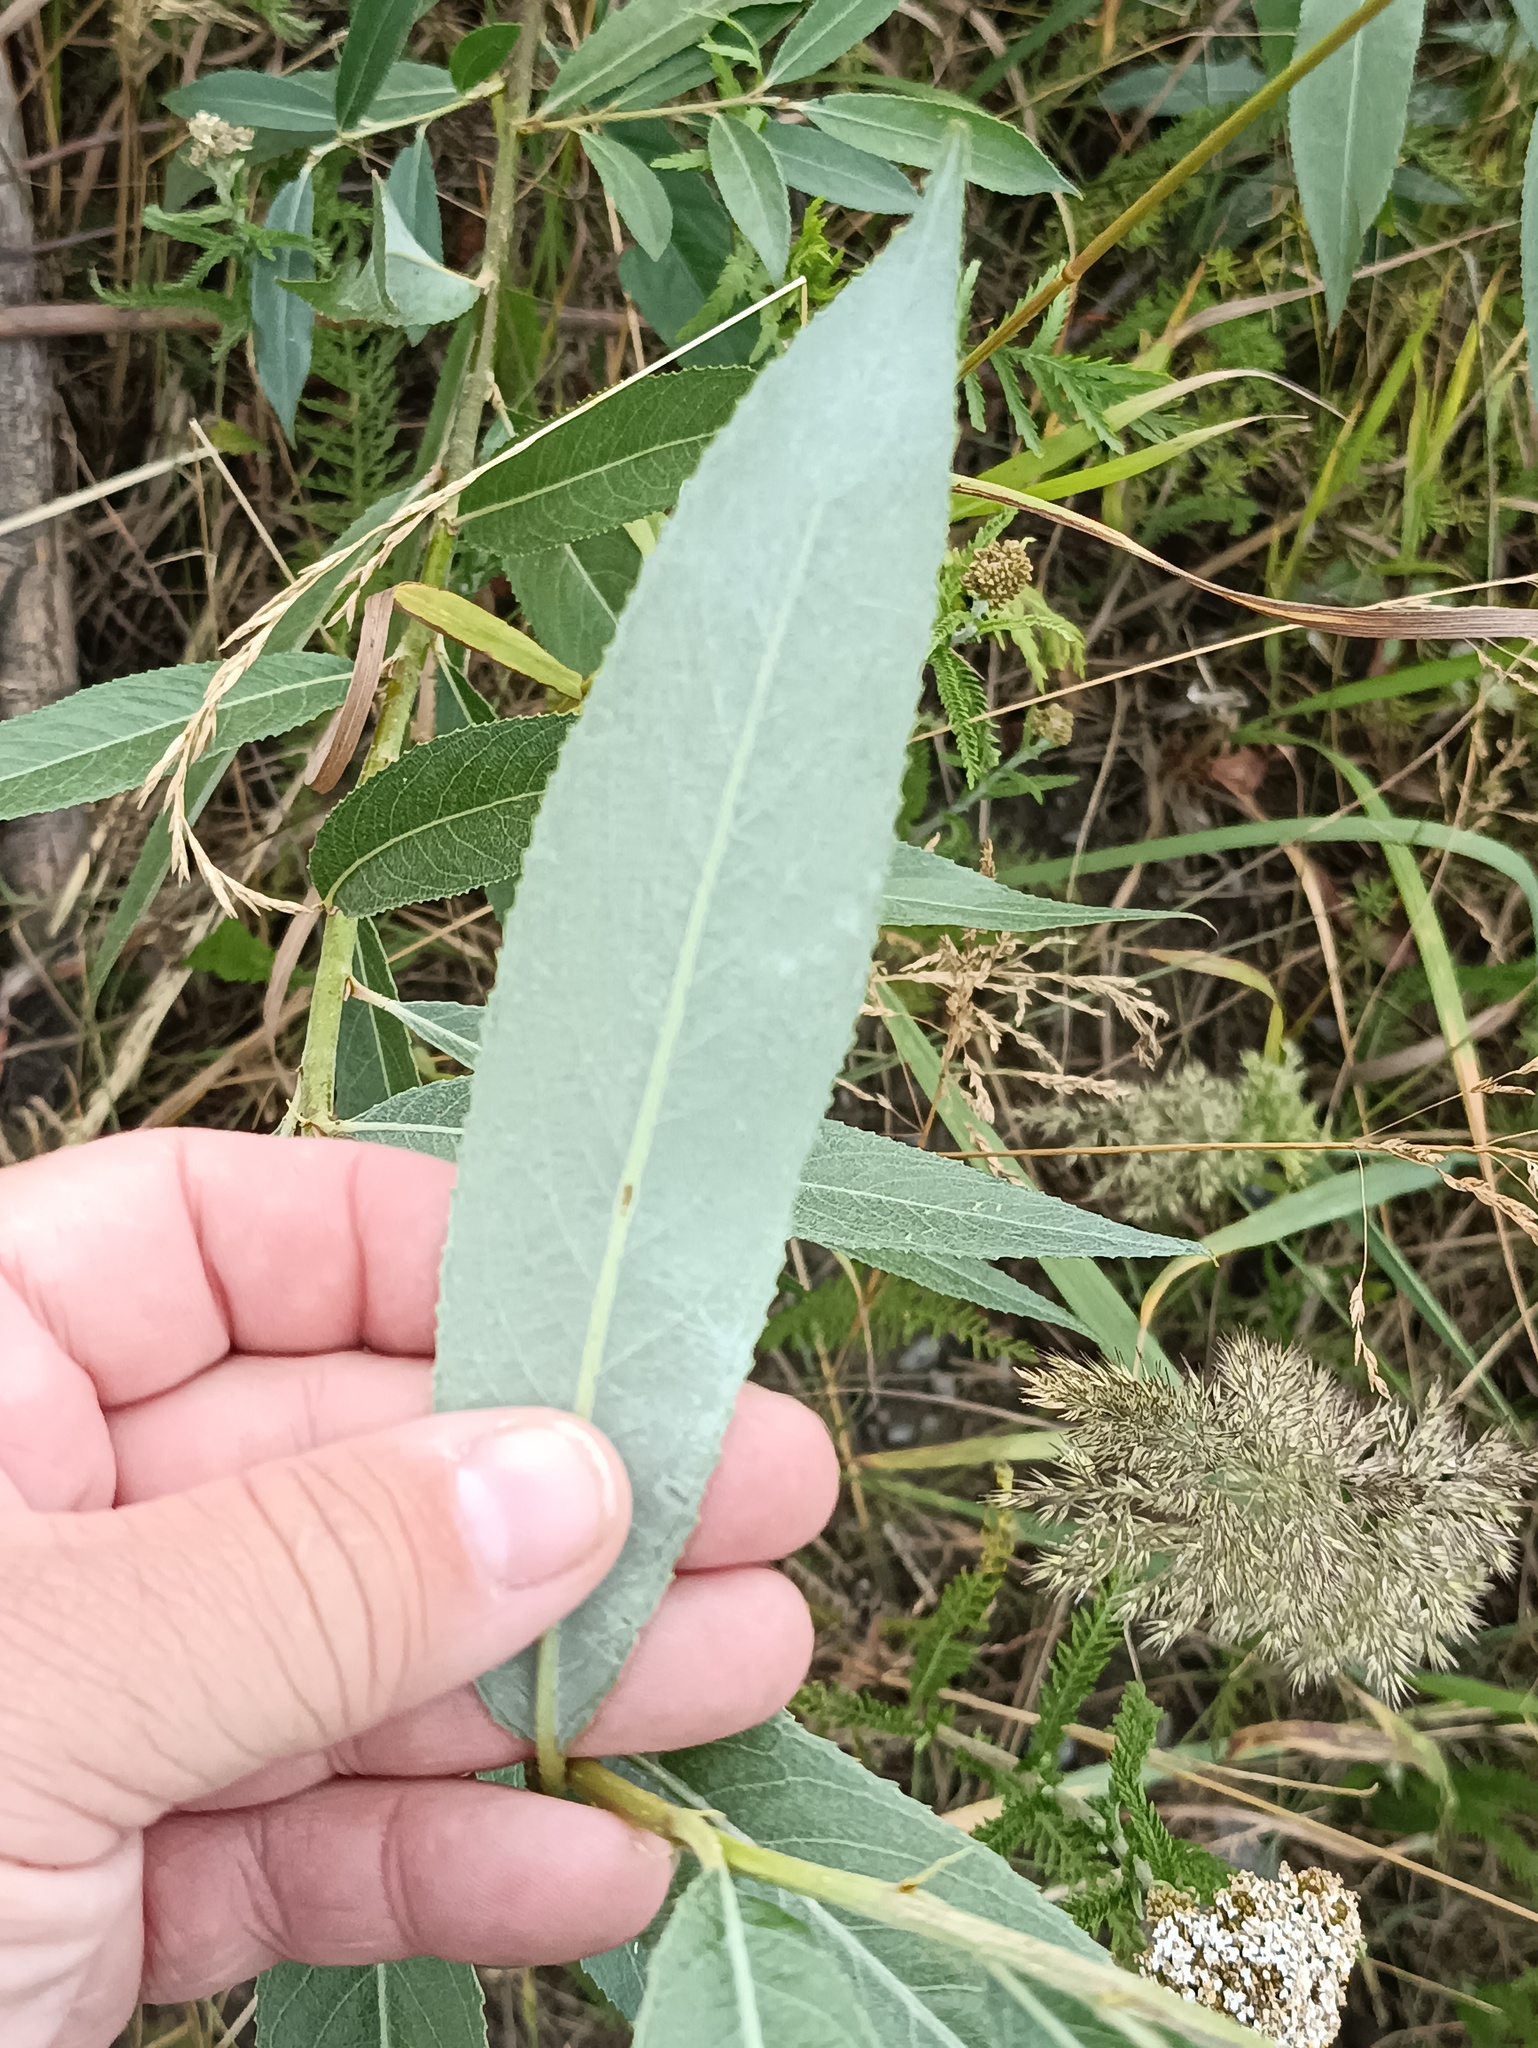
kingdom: Plantae
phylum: Tracheophyta
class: Magnoliopsida
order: Malpighiales
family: Salicaceae
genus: Salix
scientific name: Salix alba
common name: White willow
